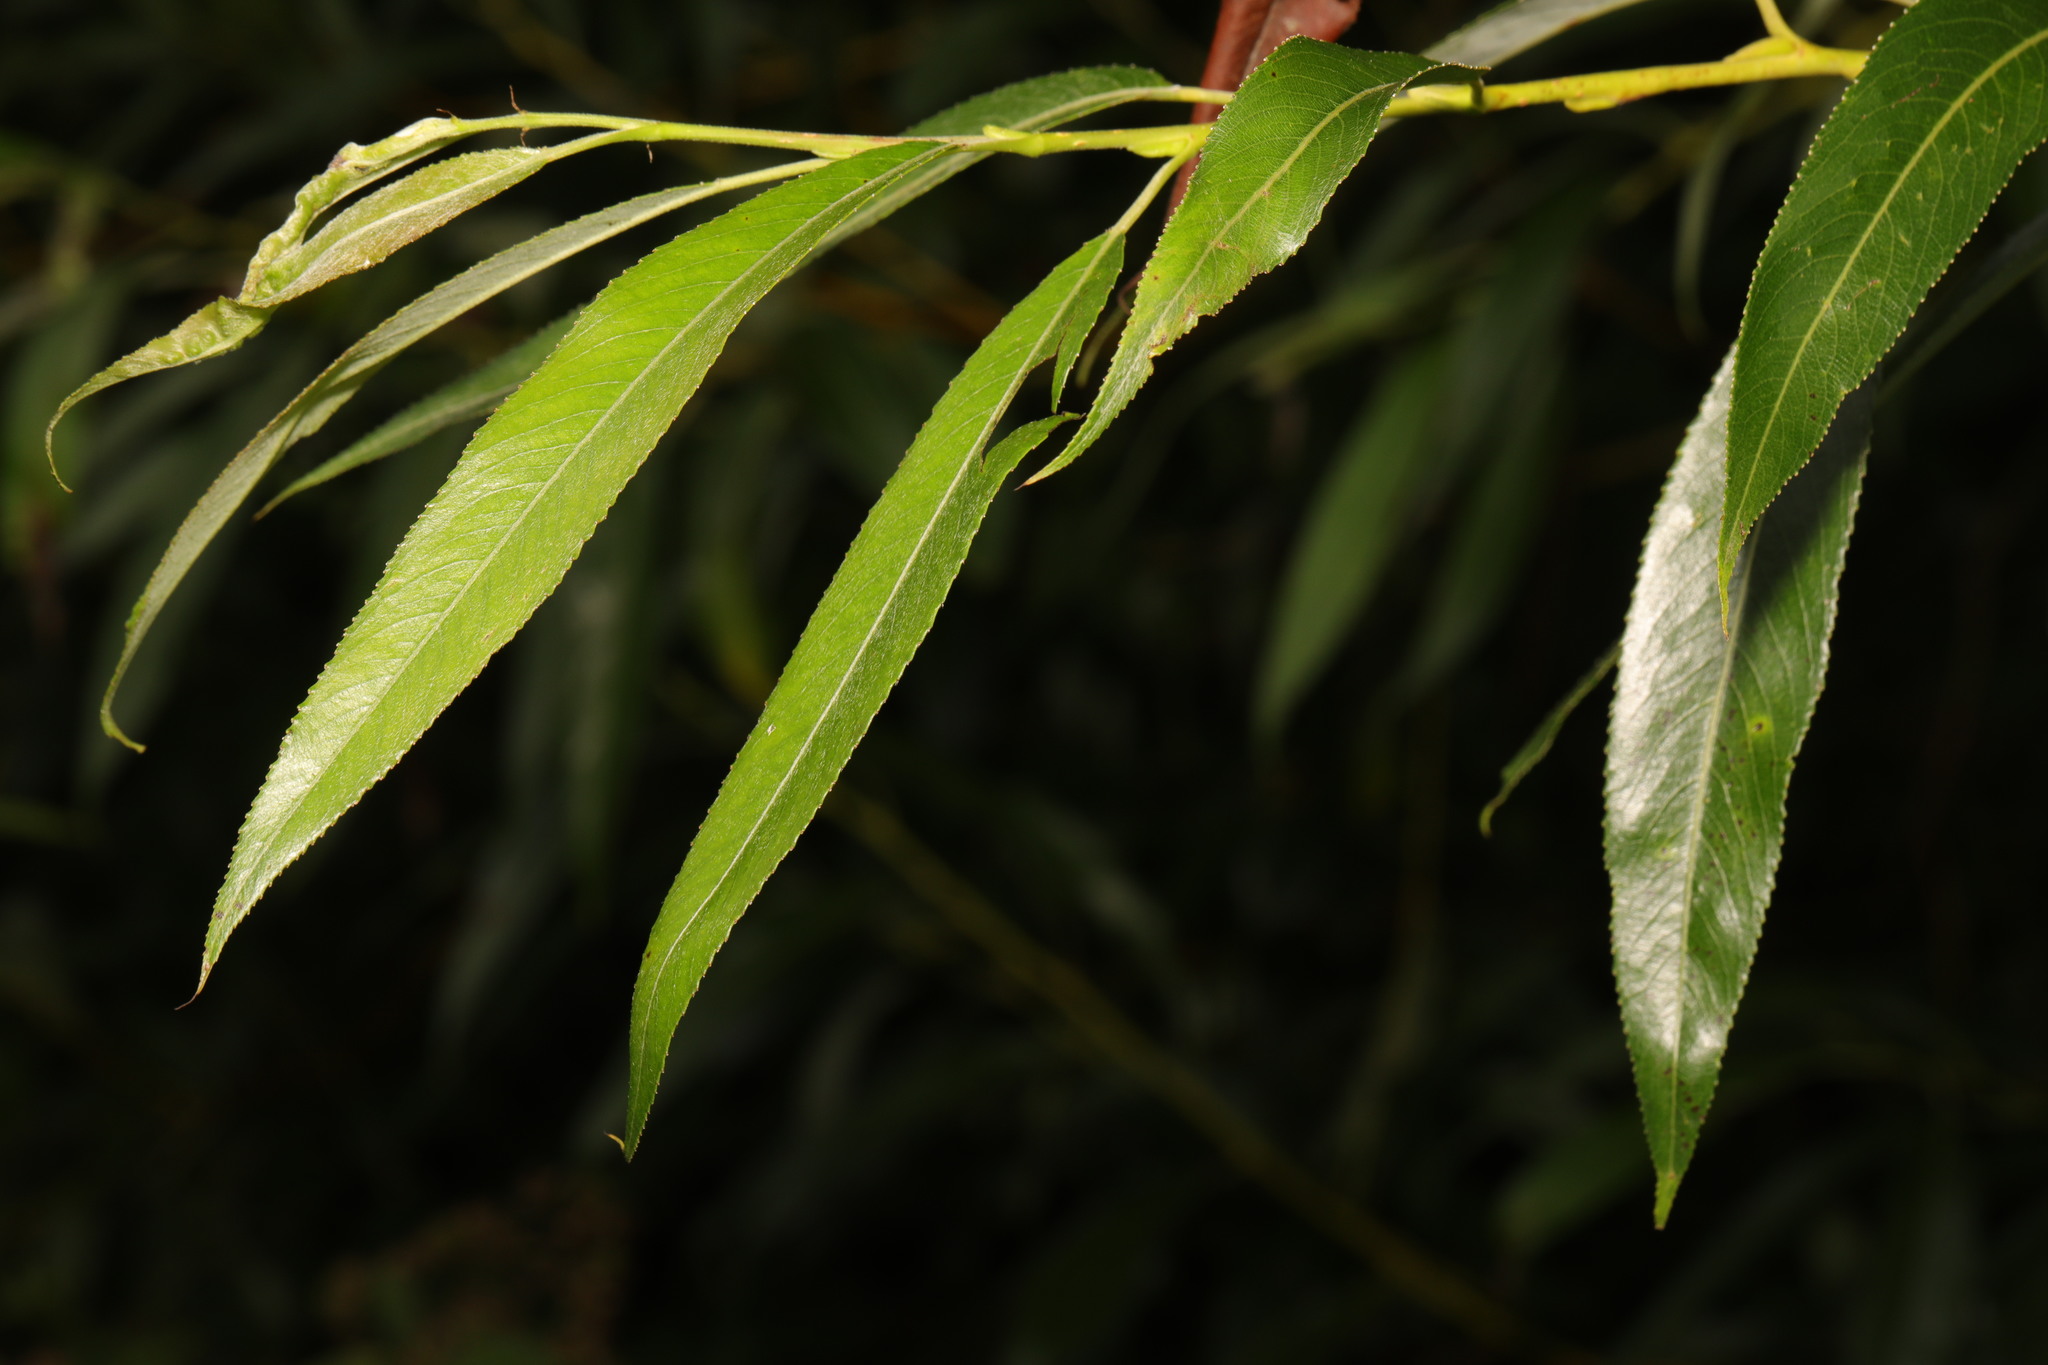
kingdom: Plantae
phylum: Tracheophyta
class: Magnoliopsida
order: Malpighiales
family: Salicaceae
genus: Salix
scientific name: Salix fragilis
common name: Crack willow
